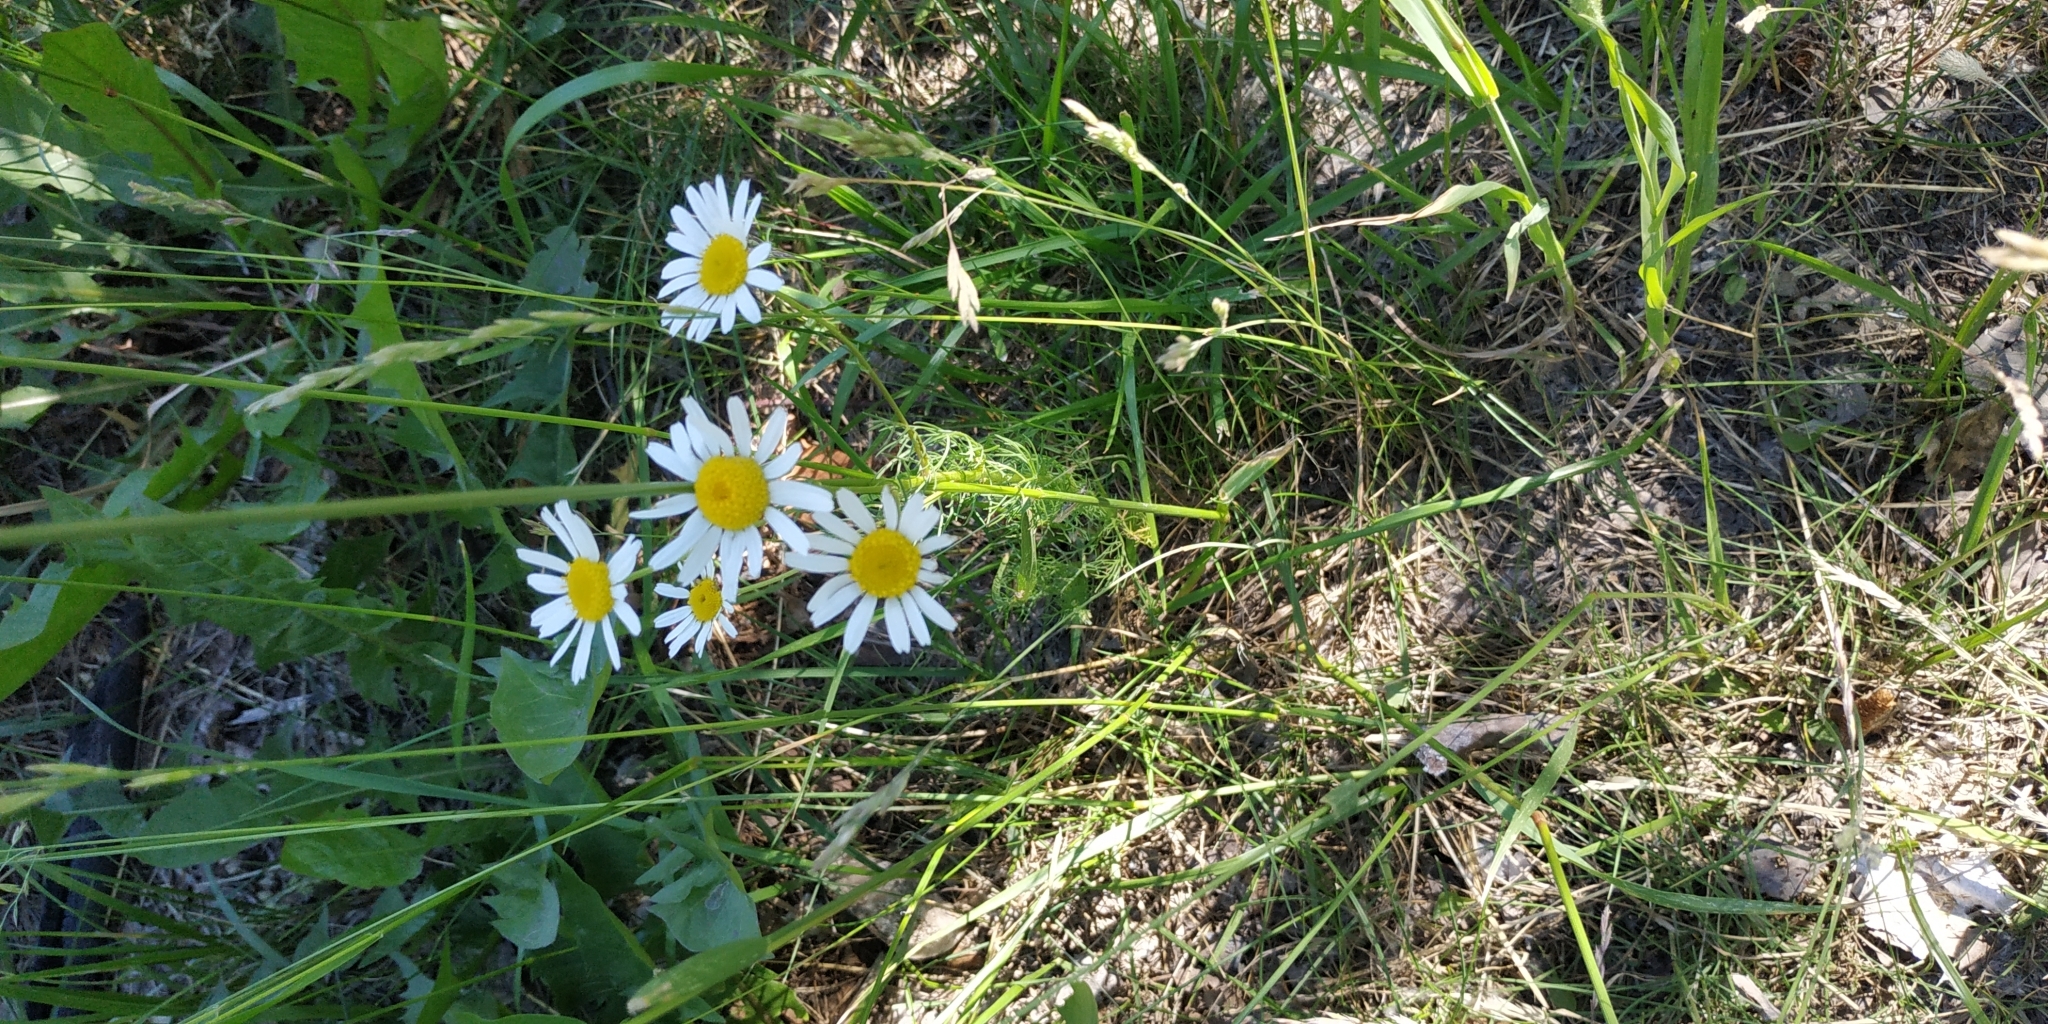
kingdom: Plantae
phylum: Tracheophyta
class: Magnoliopsida
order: Asterales
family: Asteraceae
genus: Tripleurospermum
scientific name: Tripleurospermum inodorum
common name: Scentless mayweed
